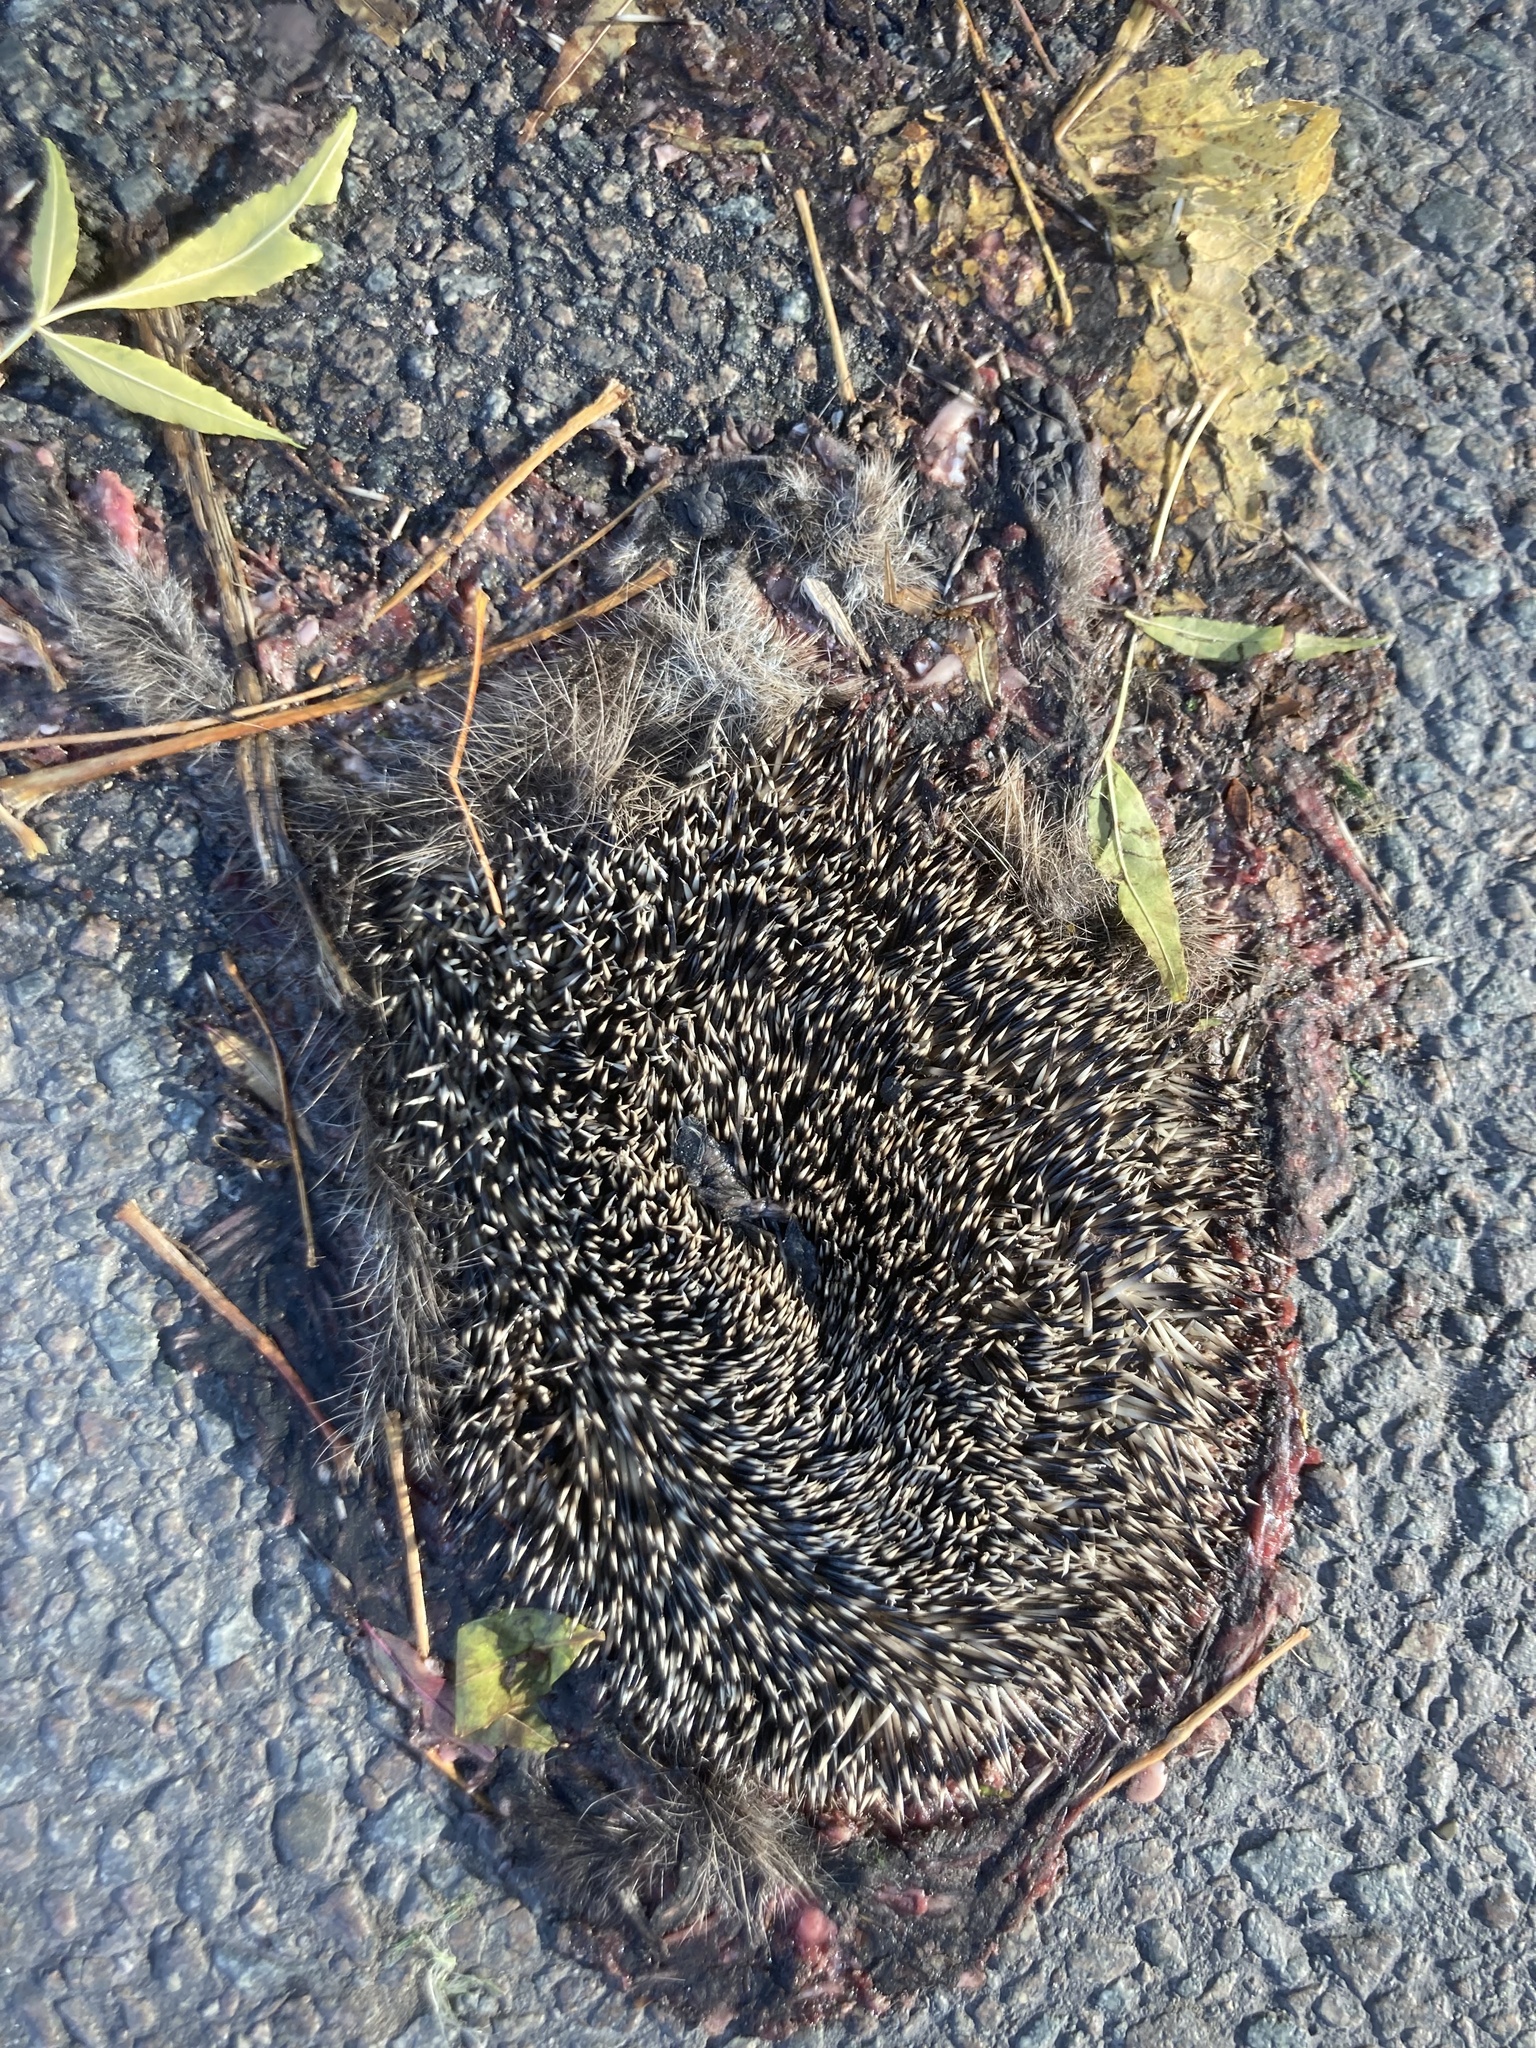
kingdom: Animalia
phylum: Chordata
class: Mammalia
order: Erinaceomorpha
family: Erinaceidae
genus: Erinaceus
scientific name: Erinaceus europaeus
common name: West european hedgehog
